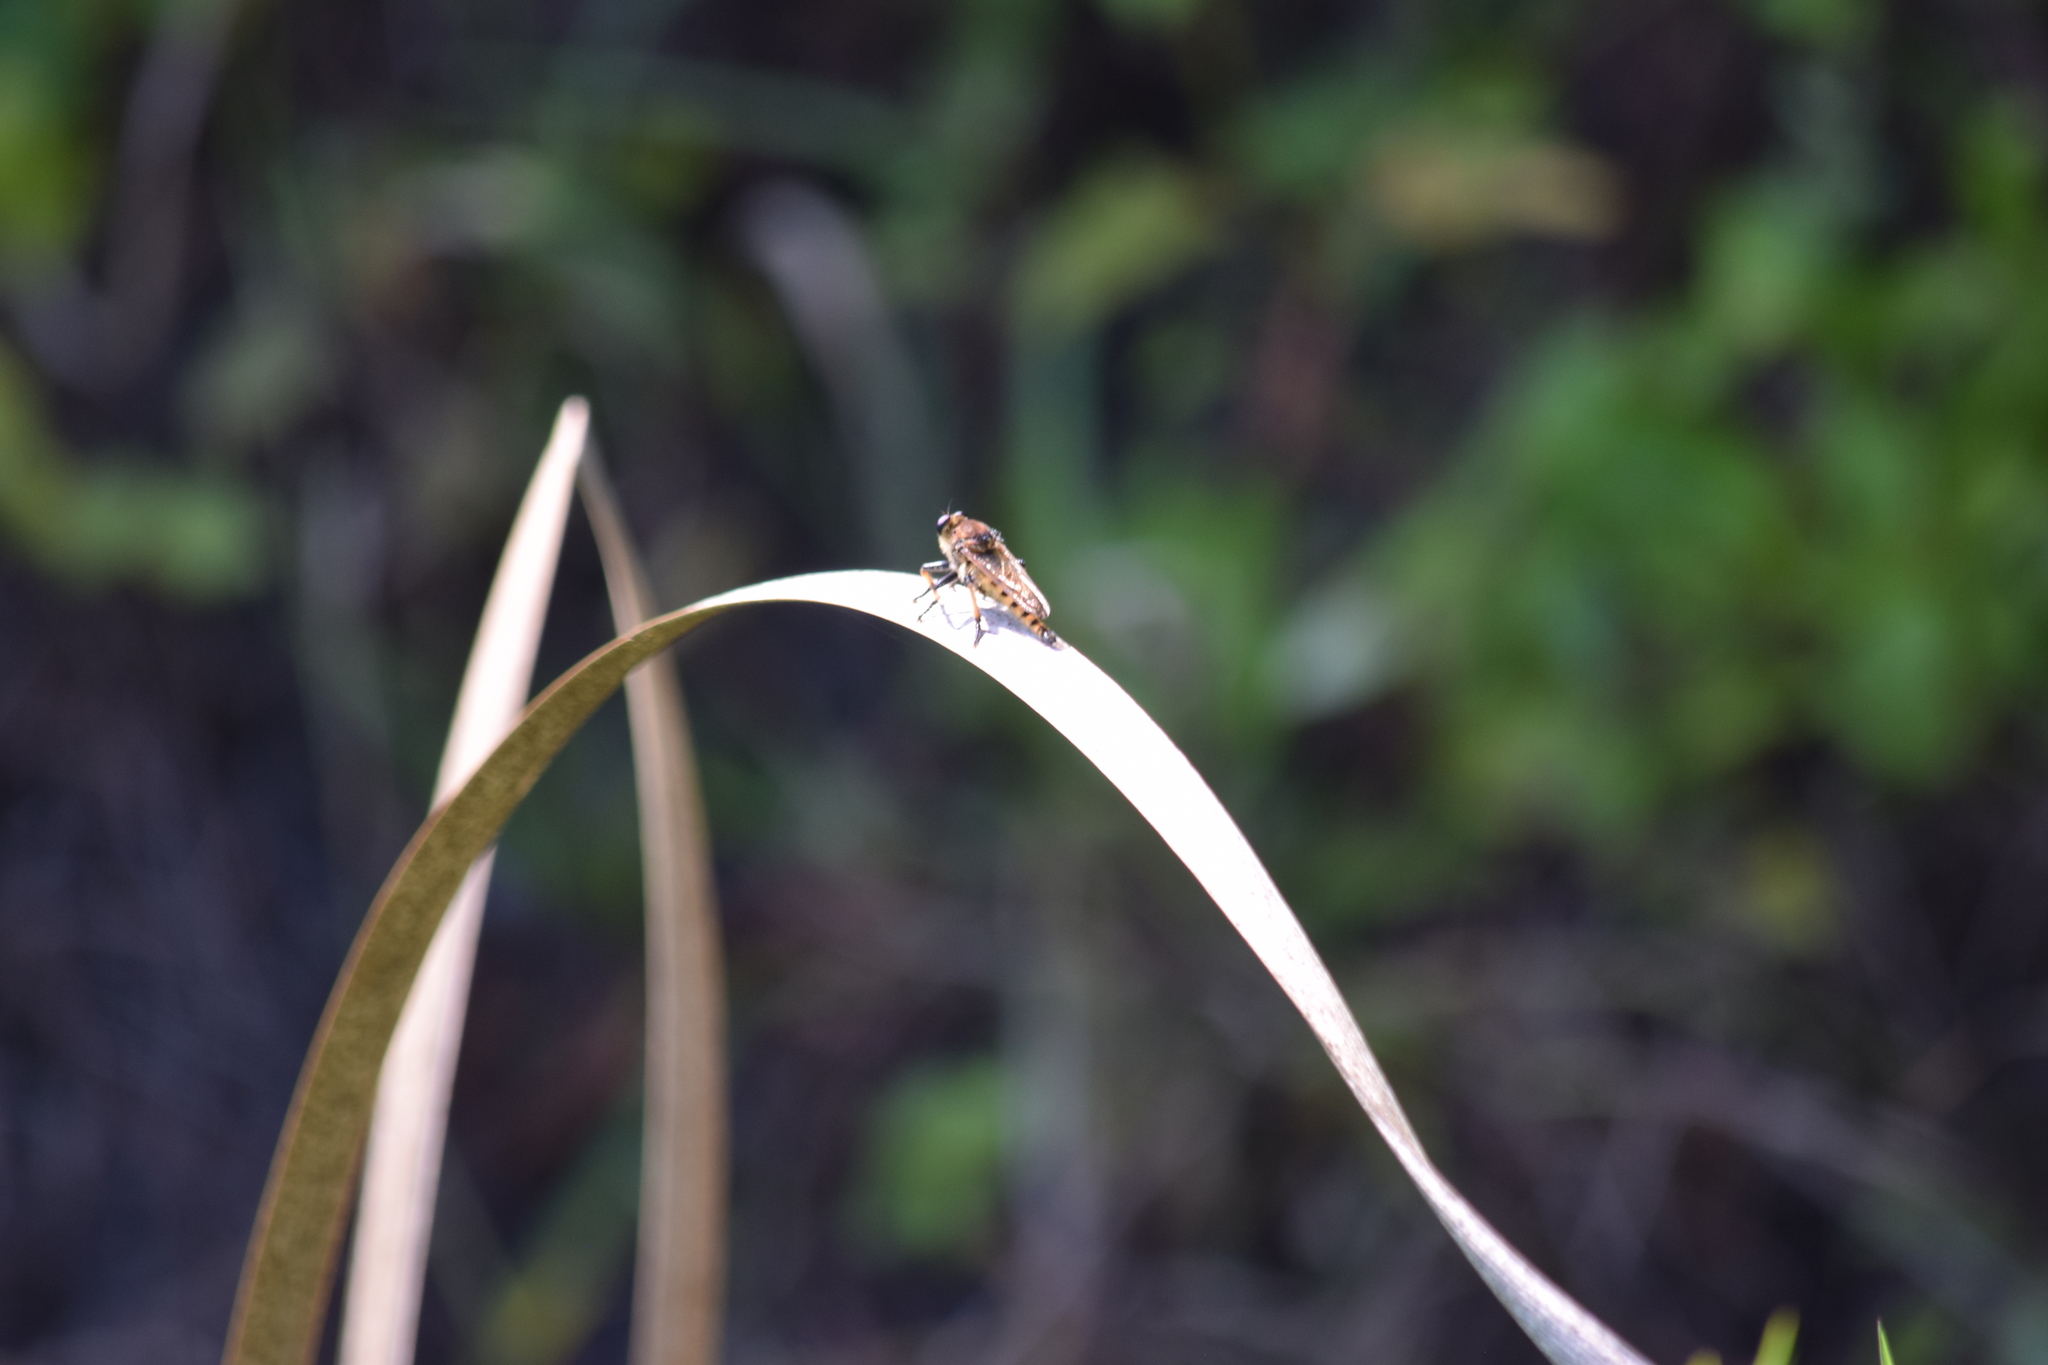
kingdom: Animalia
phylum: Arthropoda
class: Insecta
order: Diptera
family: Asilidae
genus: Promachus
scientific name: Promachus rufipes
